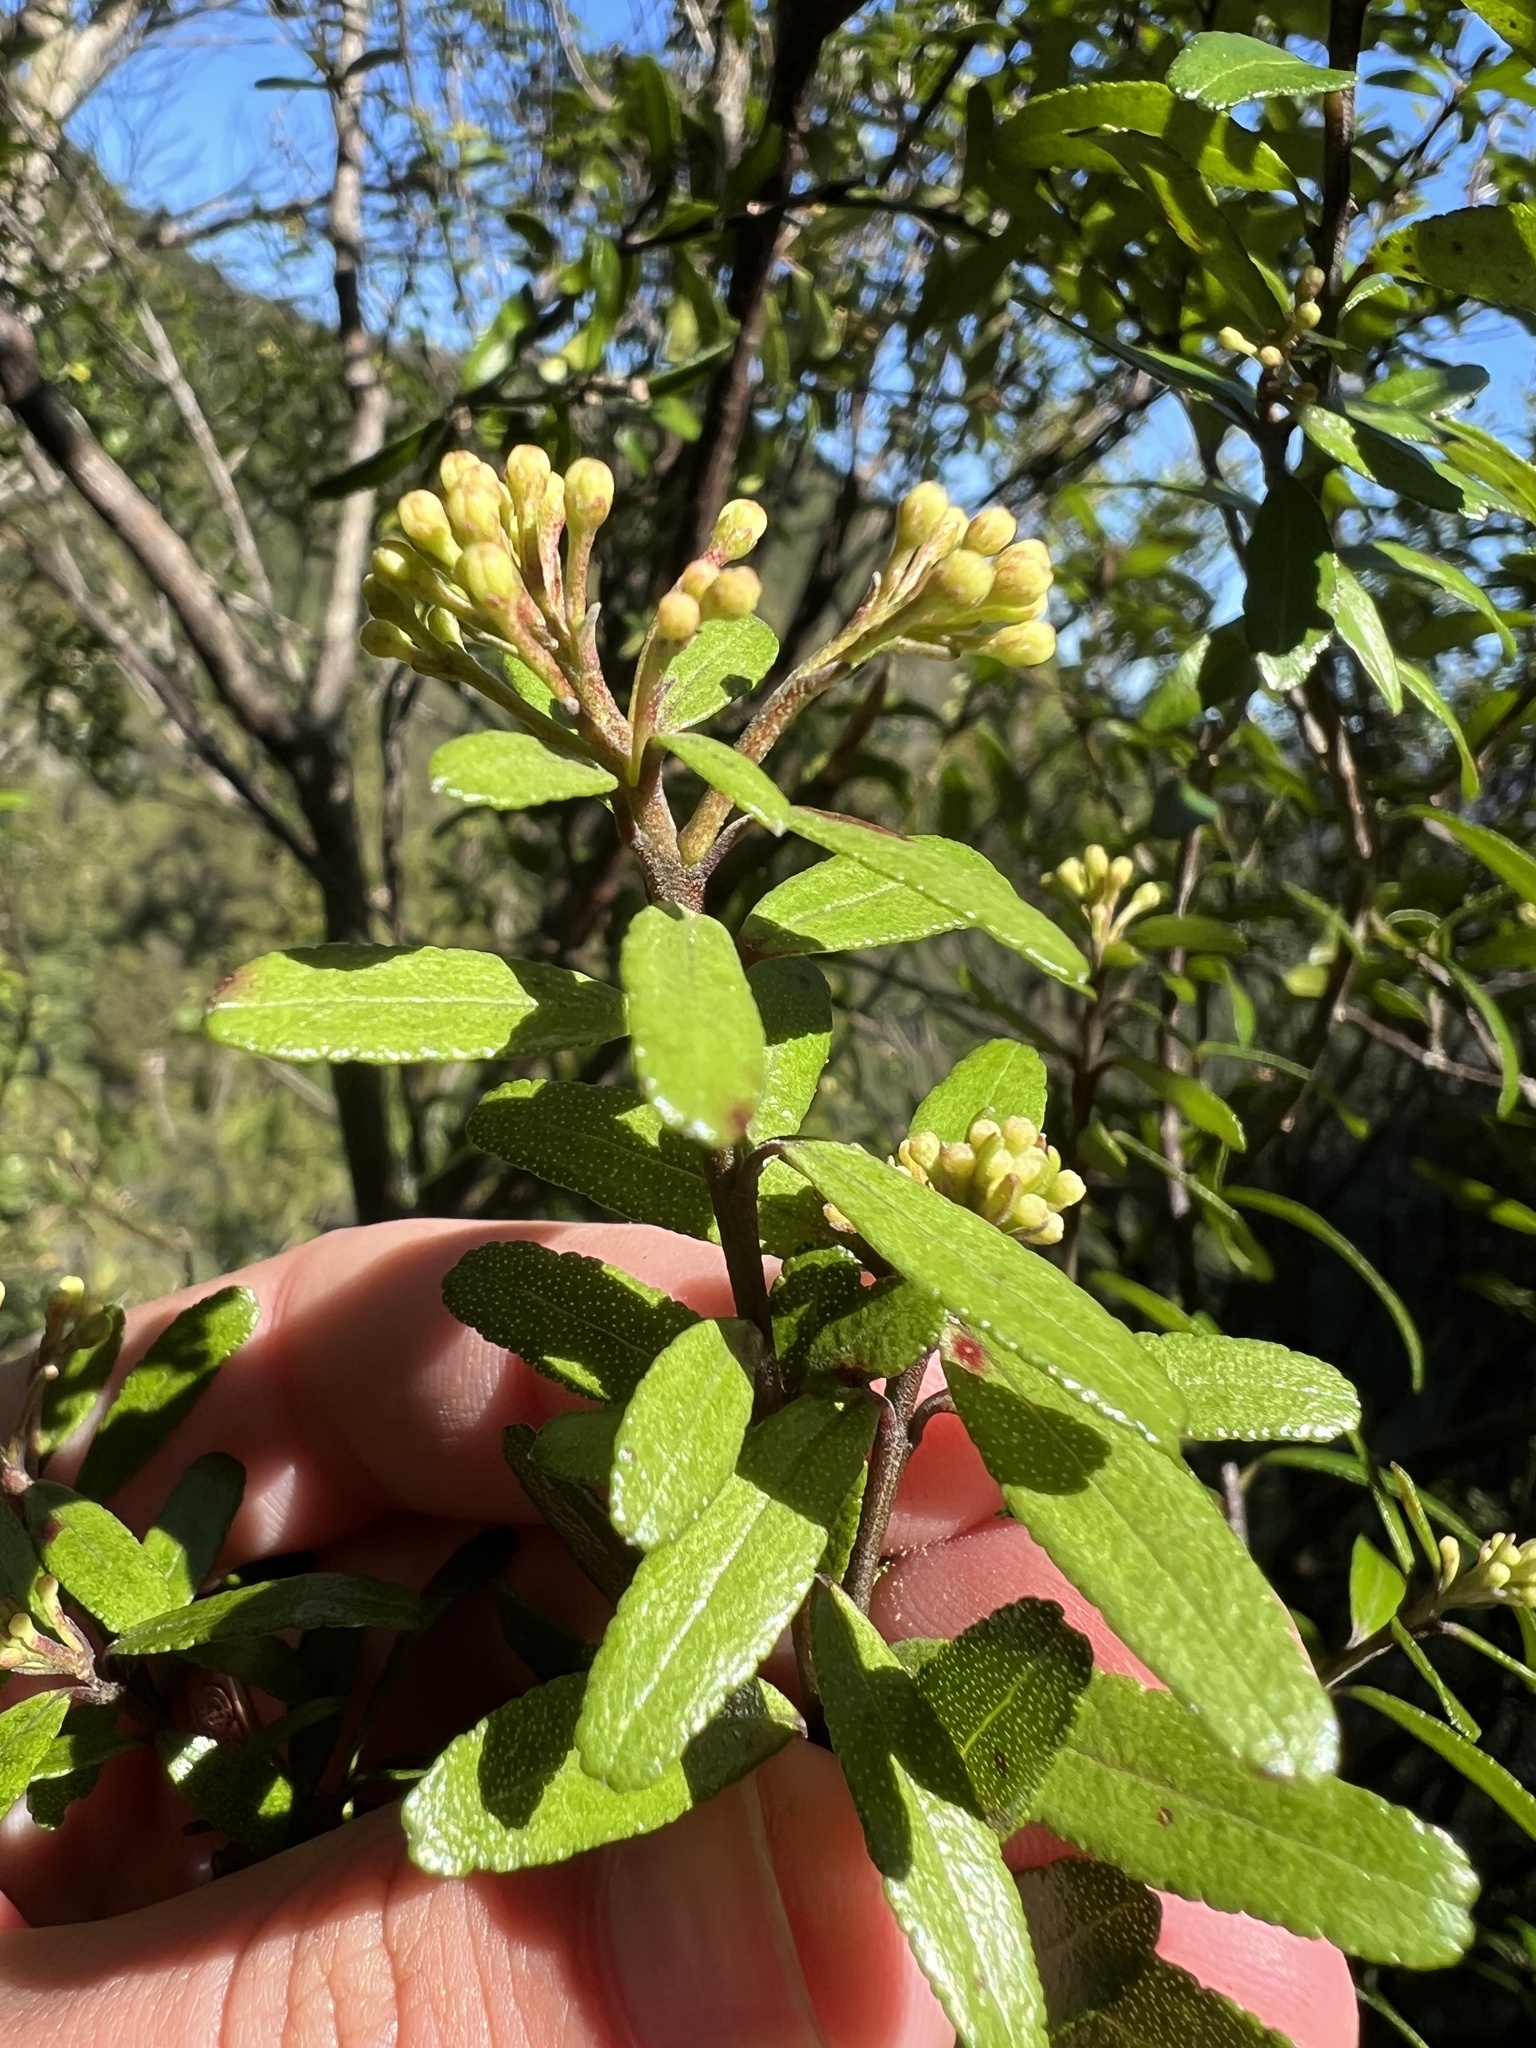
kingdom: Plantae
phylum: Tracheophyta
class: Magnoliopsida
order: Sapindales
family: Rutaceae
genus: Leionema
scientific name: Leionema nudum
